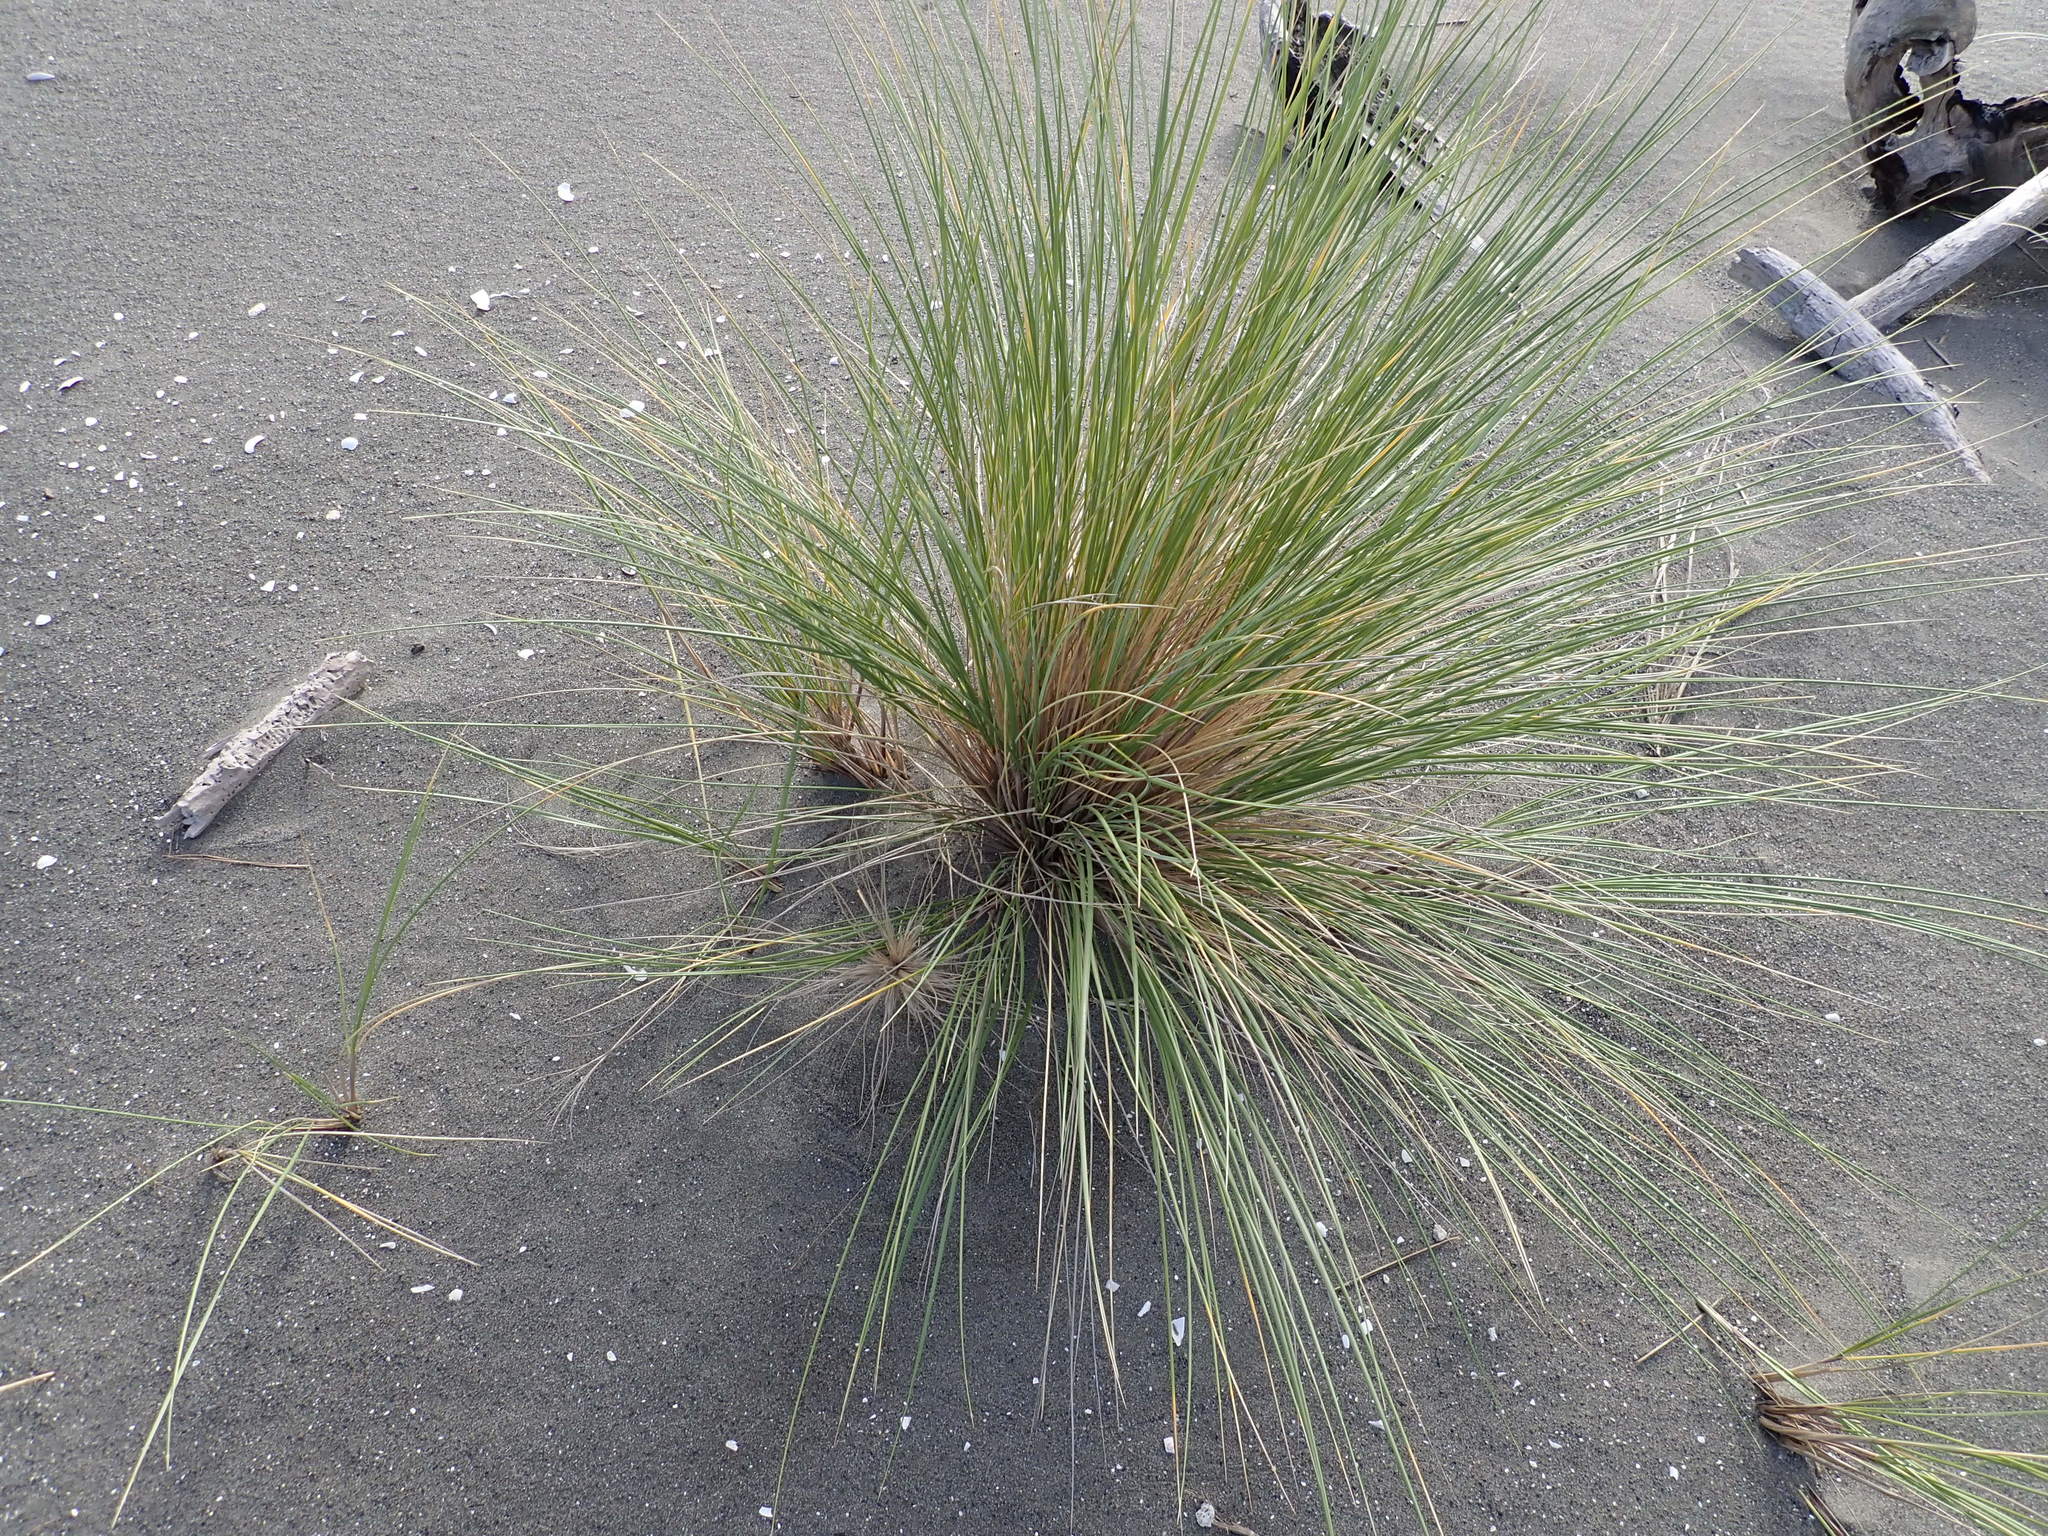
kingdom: Plantae
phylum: Tracheophyta
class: Liliopsida
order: Poales
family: Poaceae
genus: Calamagrostis
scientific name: Calamagrostis arenaria
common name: European beachgrass
